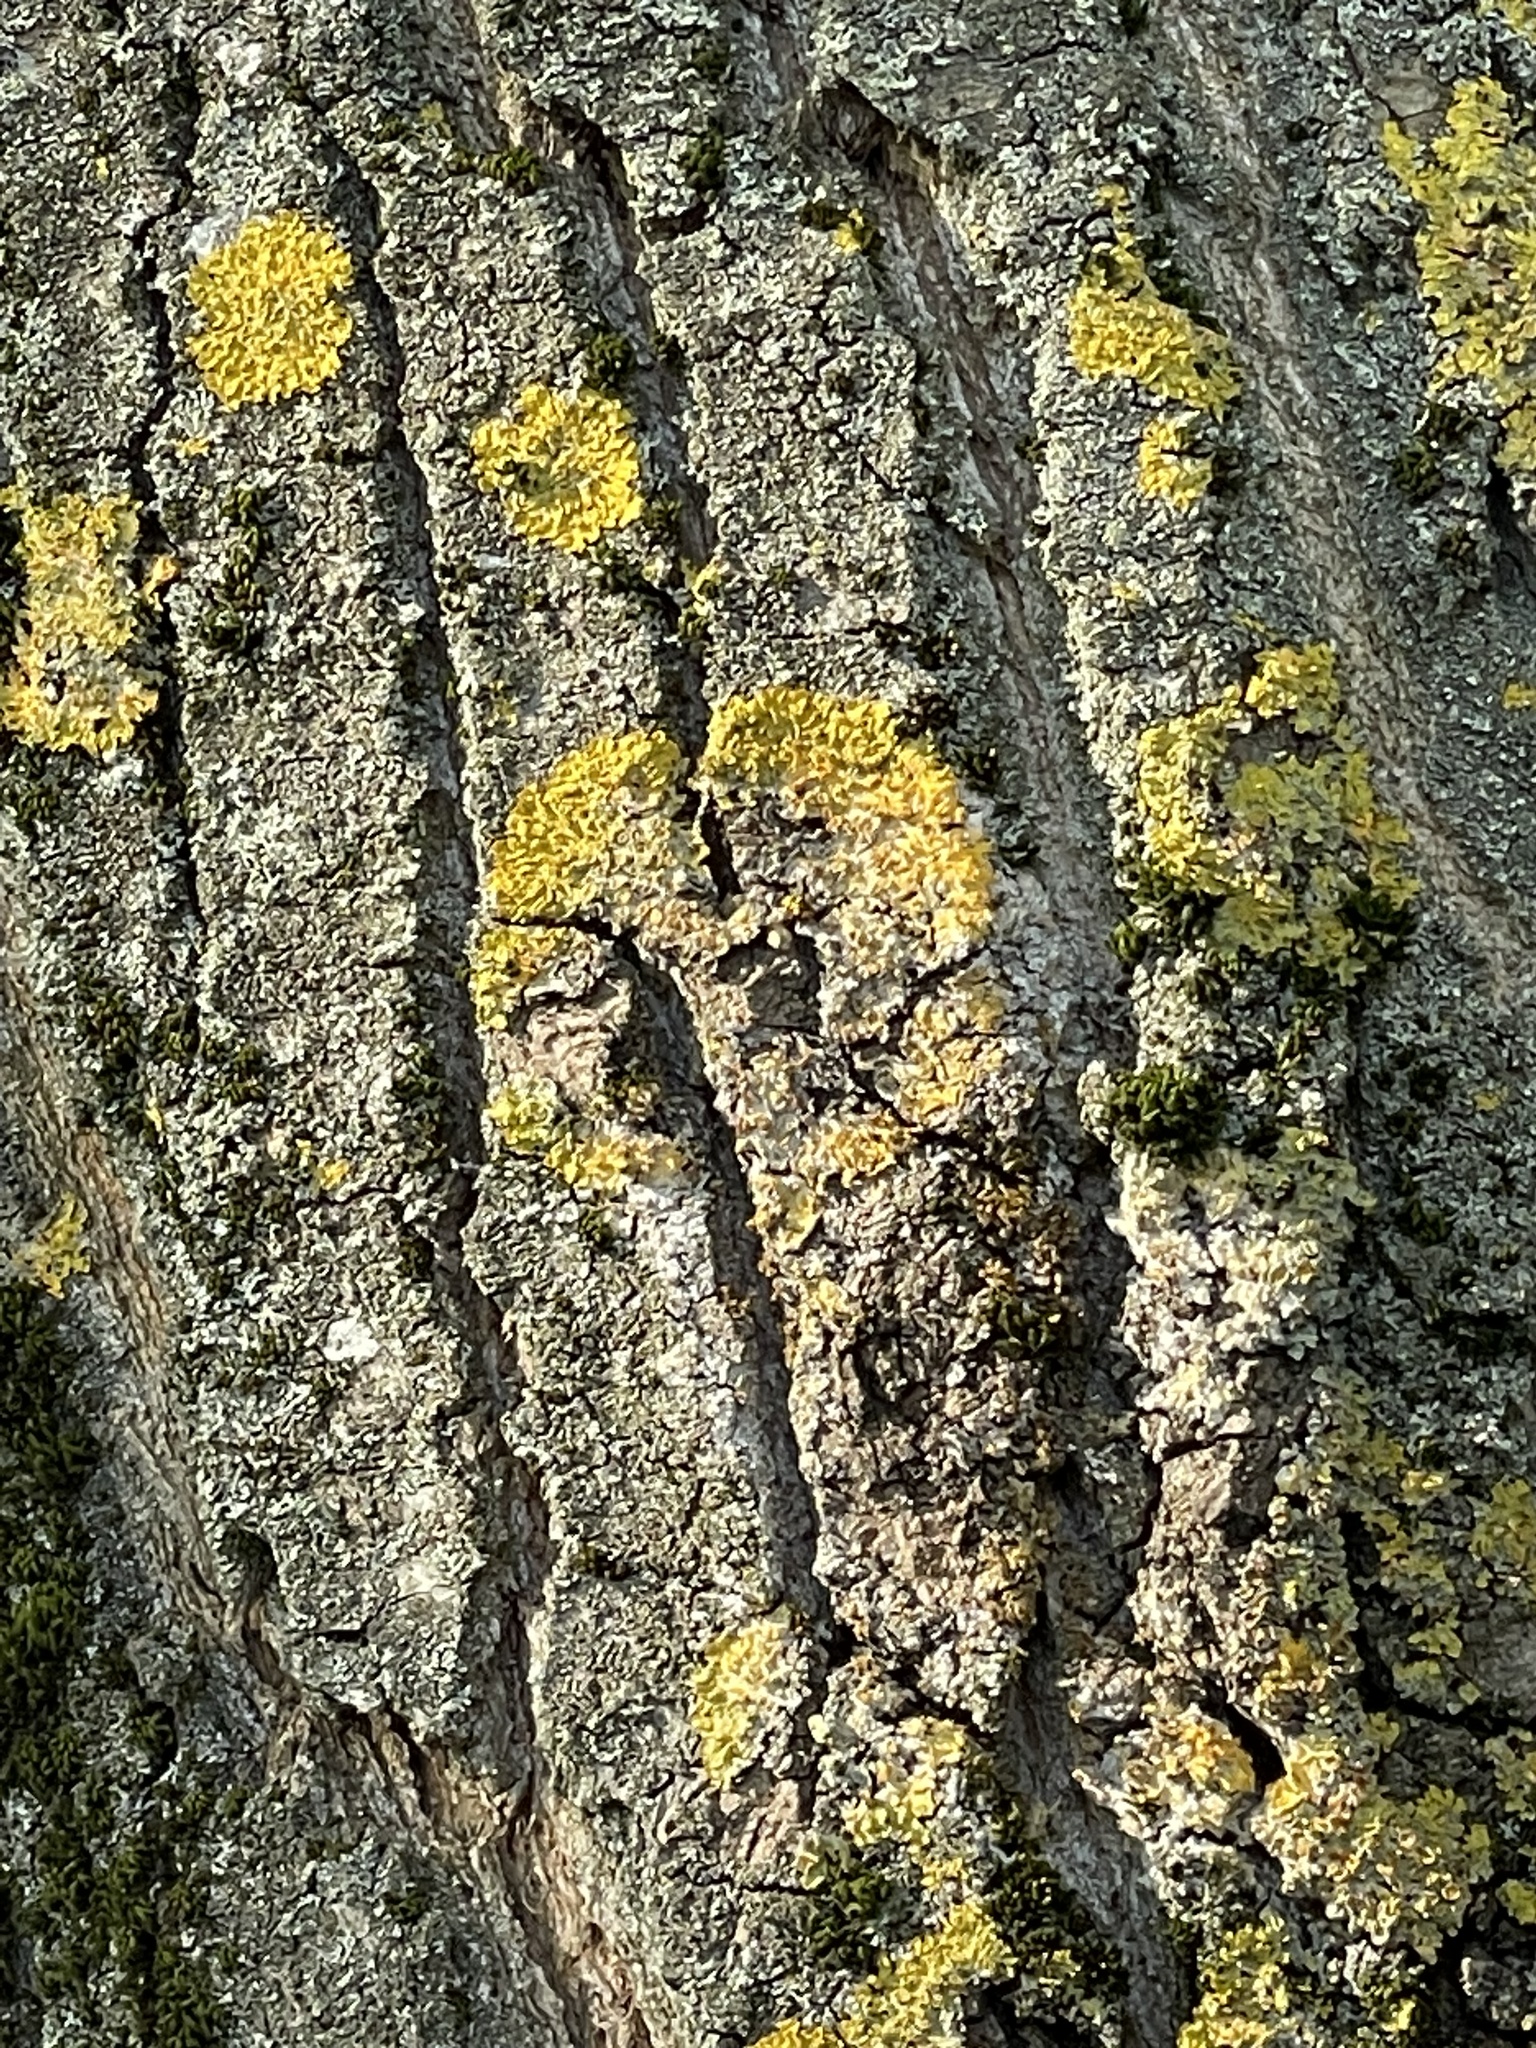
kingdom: Fungi
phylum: Ascomycota
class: Lecanoromycetes
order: Teloschistales
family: Teloschistaceae
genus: Xanthoria
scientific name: Xanthoria parietina
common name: Common orange lichen
